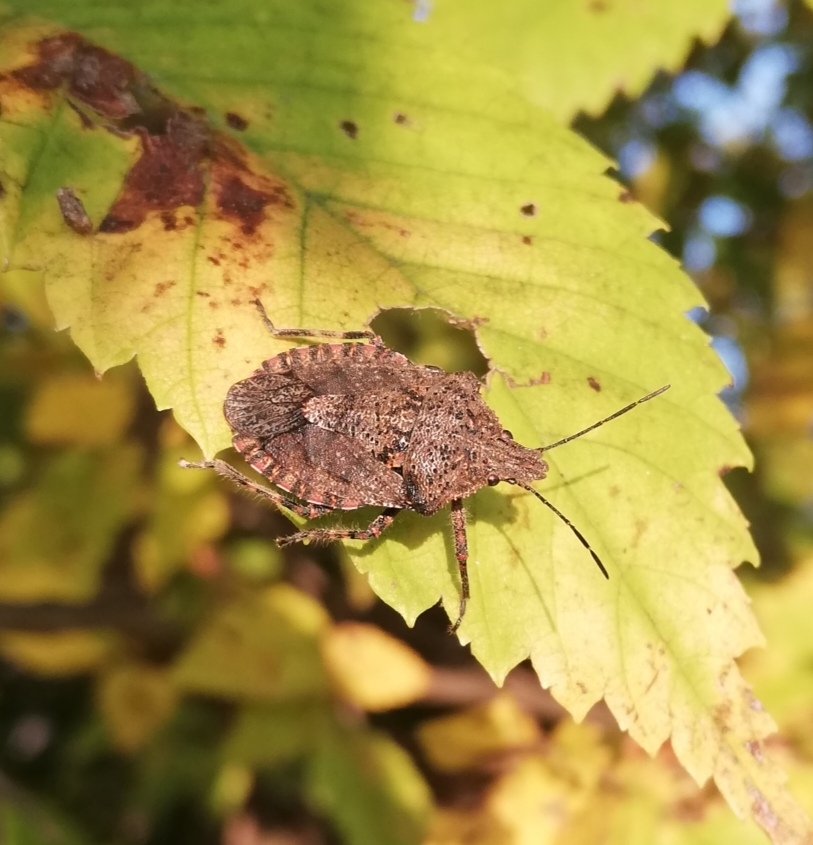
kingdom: Animalia
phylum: Arthropoda
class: Insecta
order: Hemiptera
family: Pentatomidae
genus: Brochymena
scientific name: Brochymena quadripustulata
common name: Four-humped stink bug
